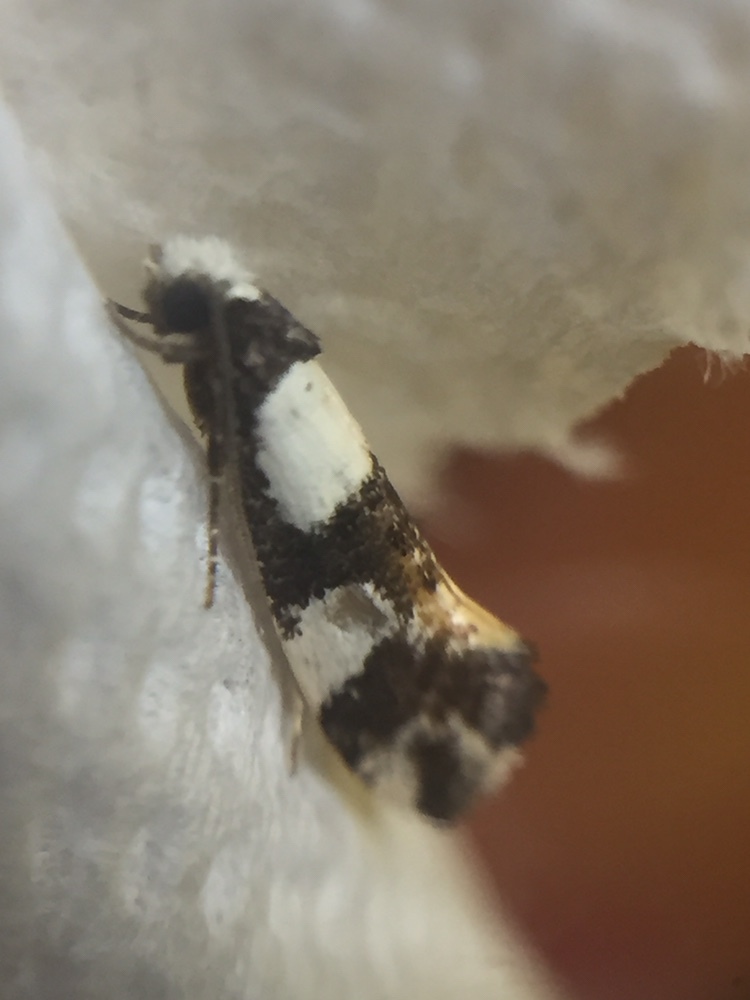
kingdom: Animalia
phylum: Arthropoda
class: Insecta
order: Lepidoptera
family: Tineidae
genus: Monopis
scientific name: Monopis icterogastra
